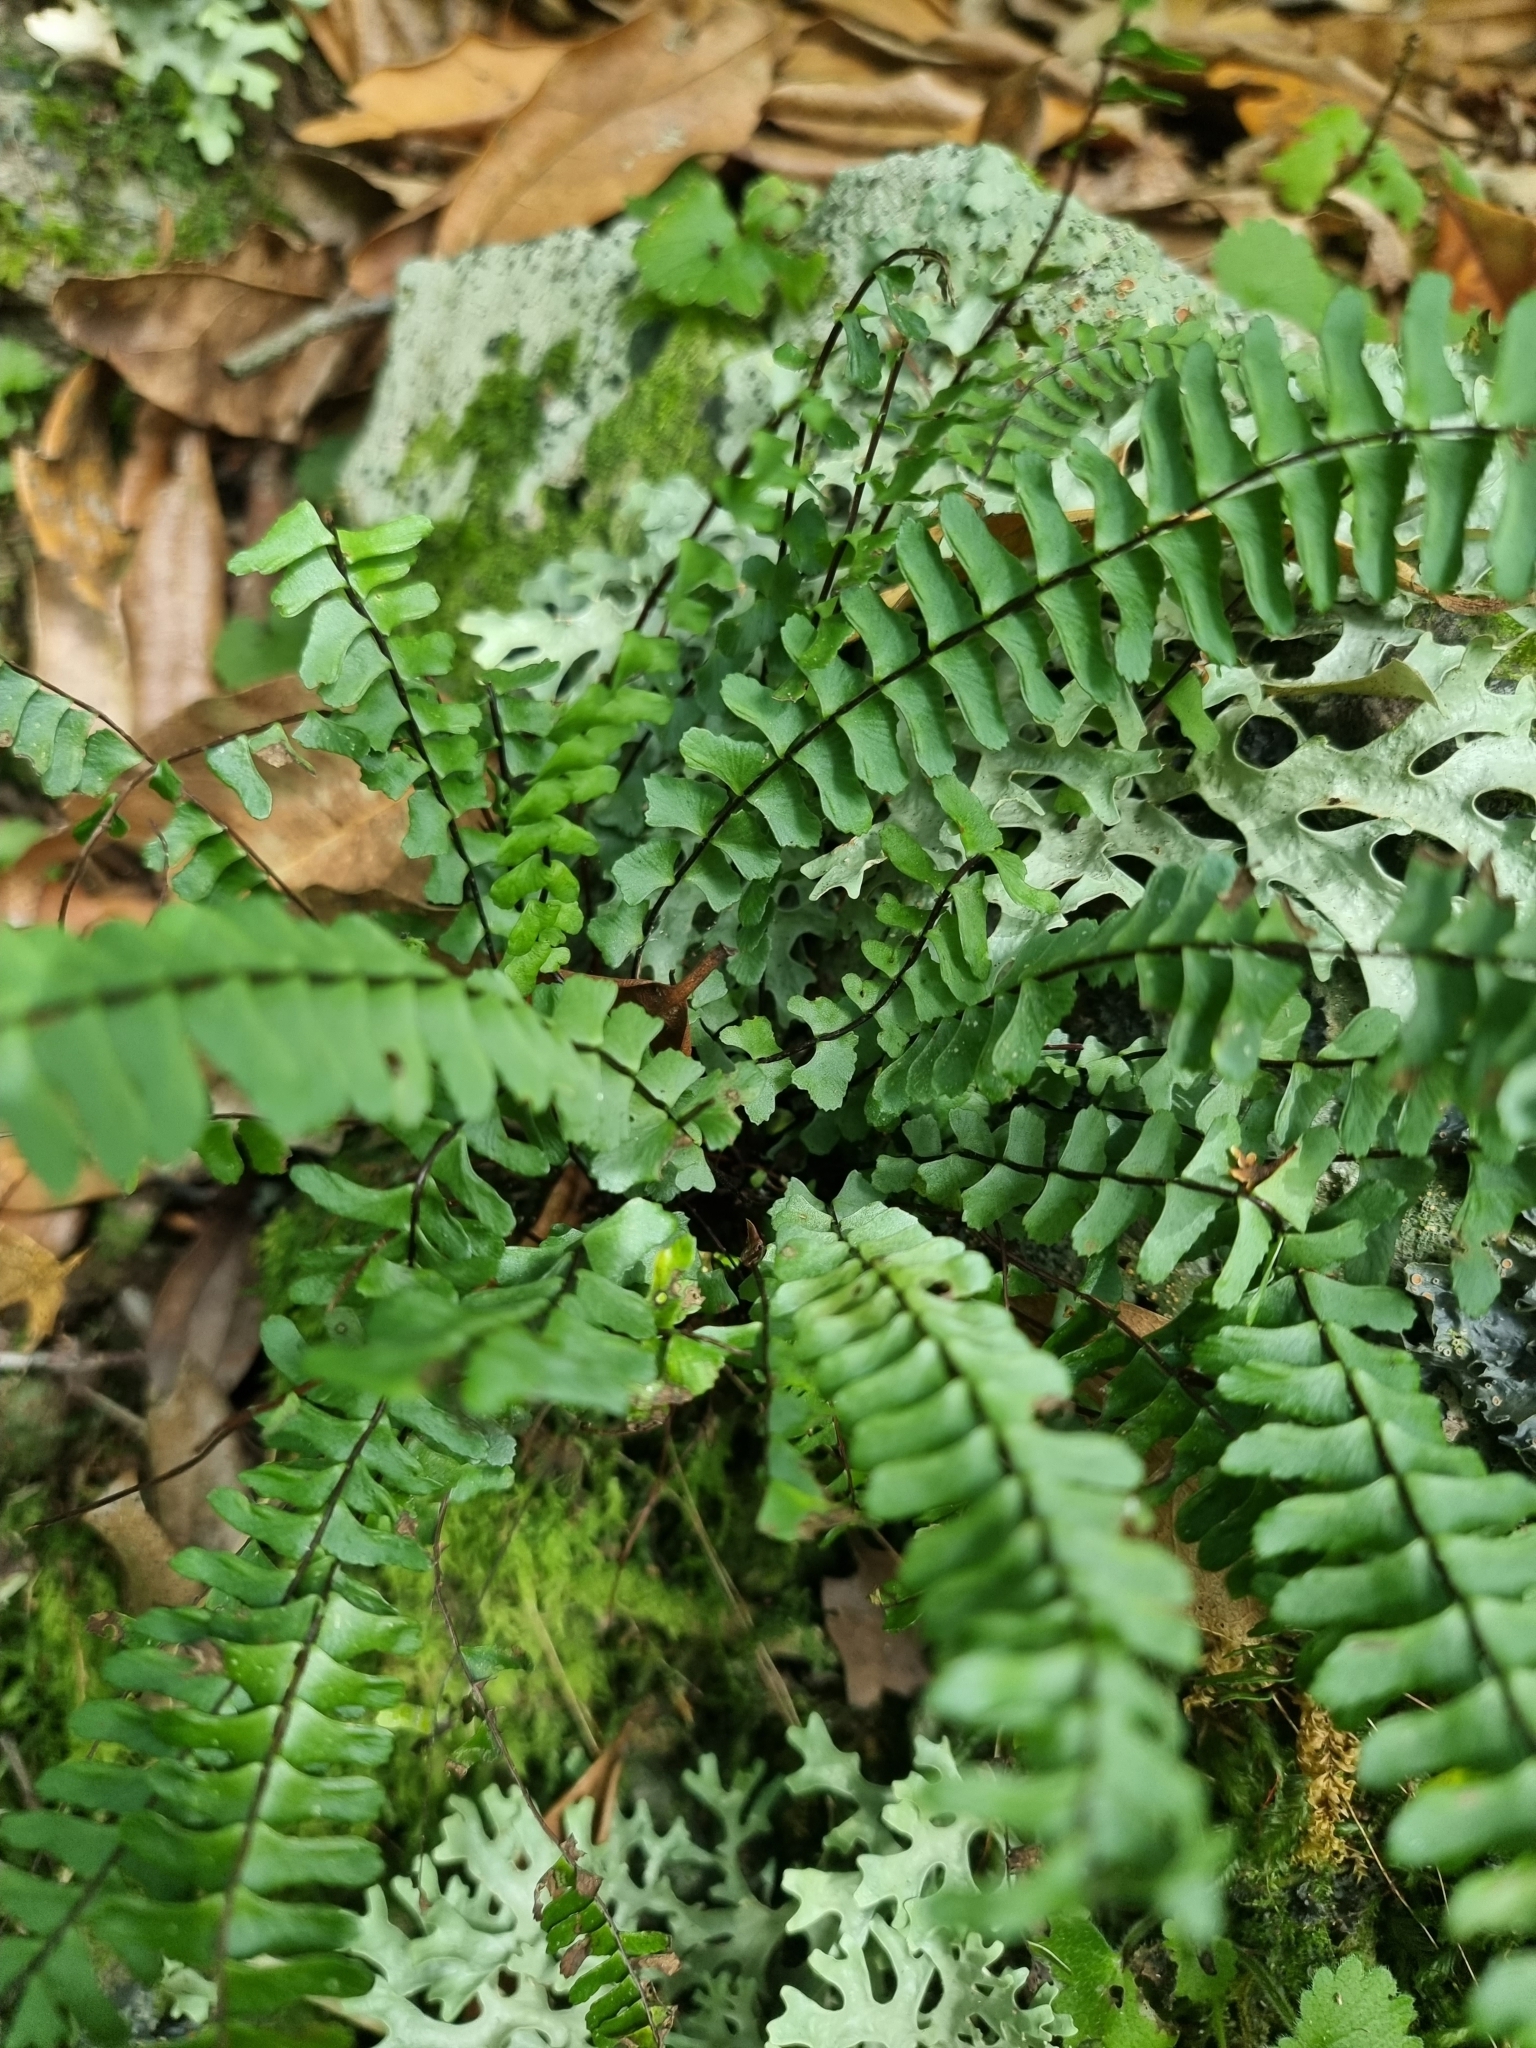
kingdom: Plantae
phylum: Tracheophyta
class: Polypodiopsida
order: Polypodiales
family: Aspleniaceae
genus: Asplenium
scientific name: Asplenium monanthes
